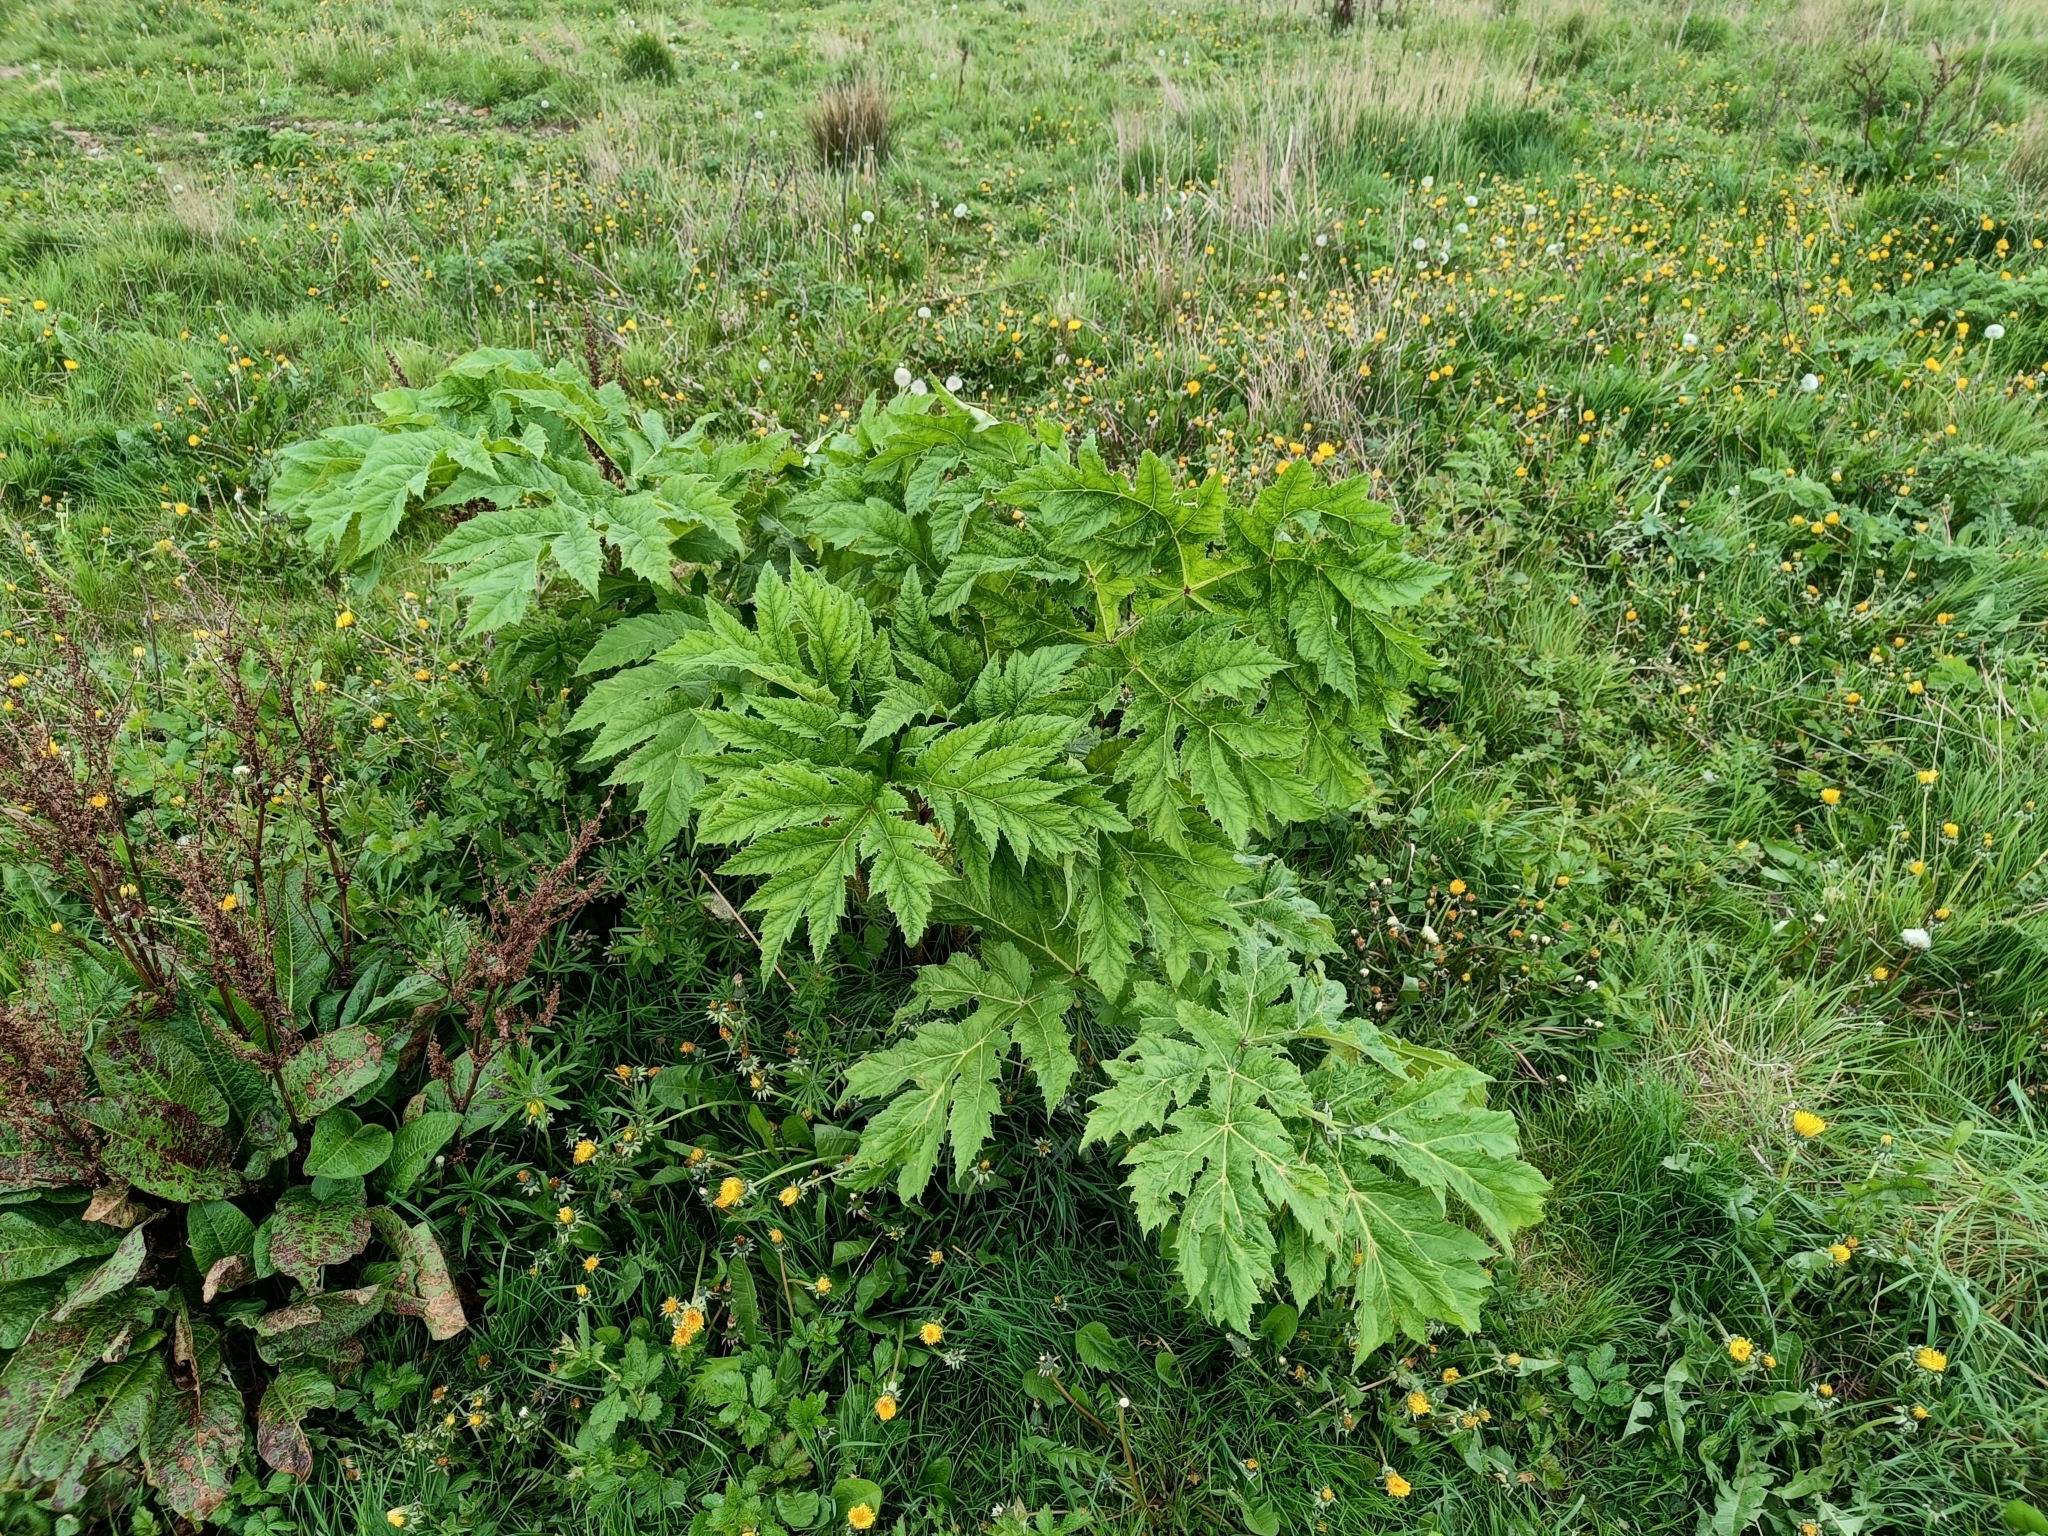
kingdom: Plantae
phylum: Tracheophyta
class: Magnoliopsida
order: Apiales
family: Apiaceae
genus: Heracleum
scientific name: Heracleum mantegazzianum
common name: Giant hogweed
